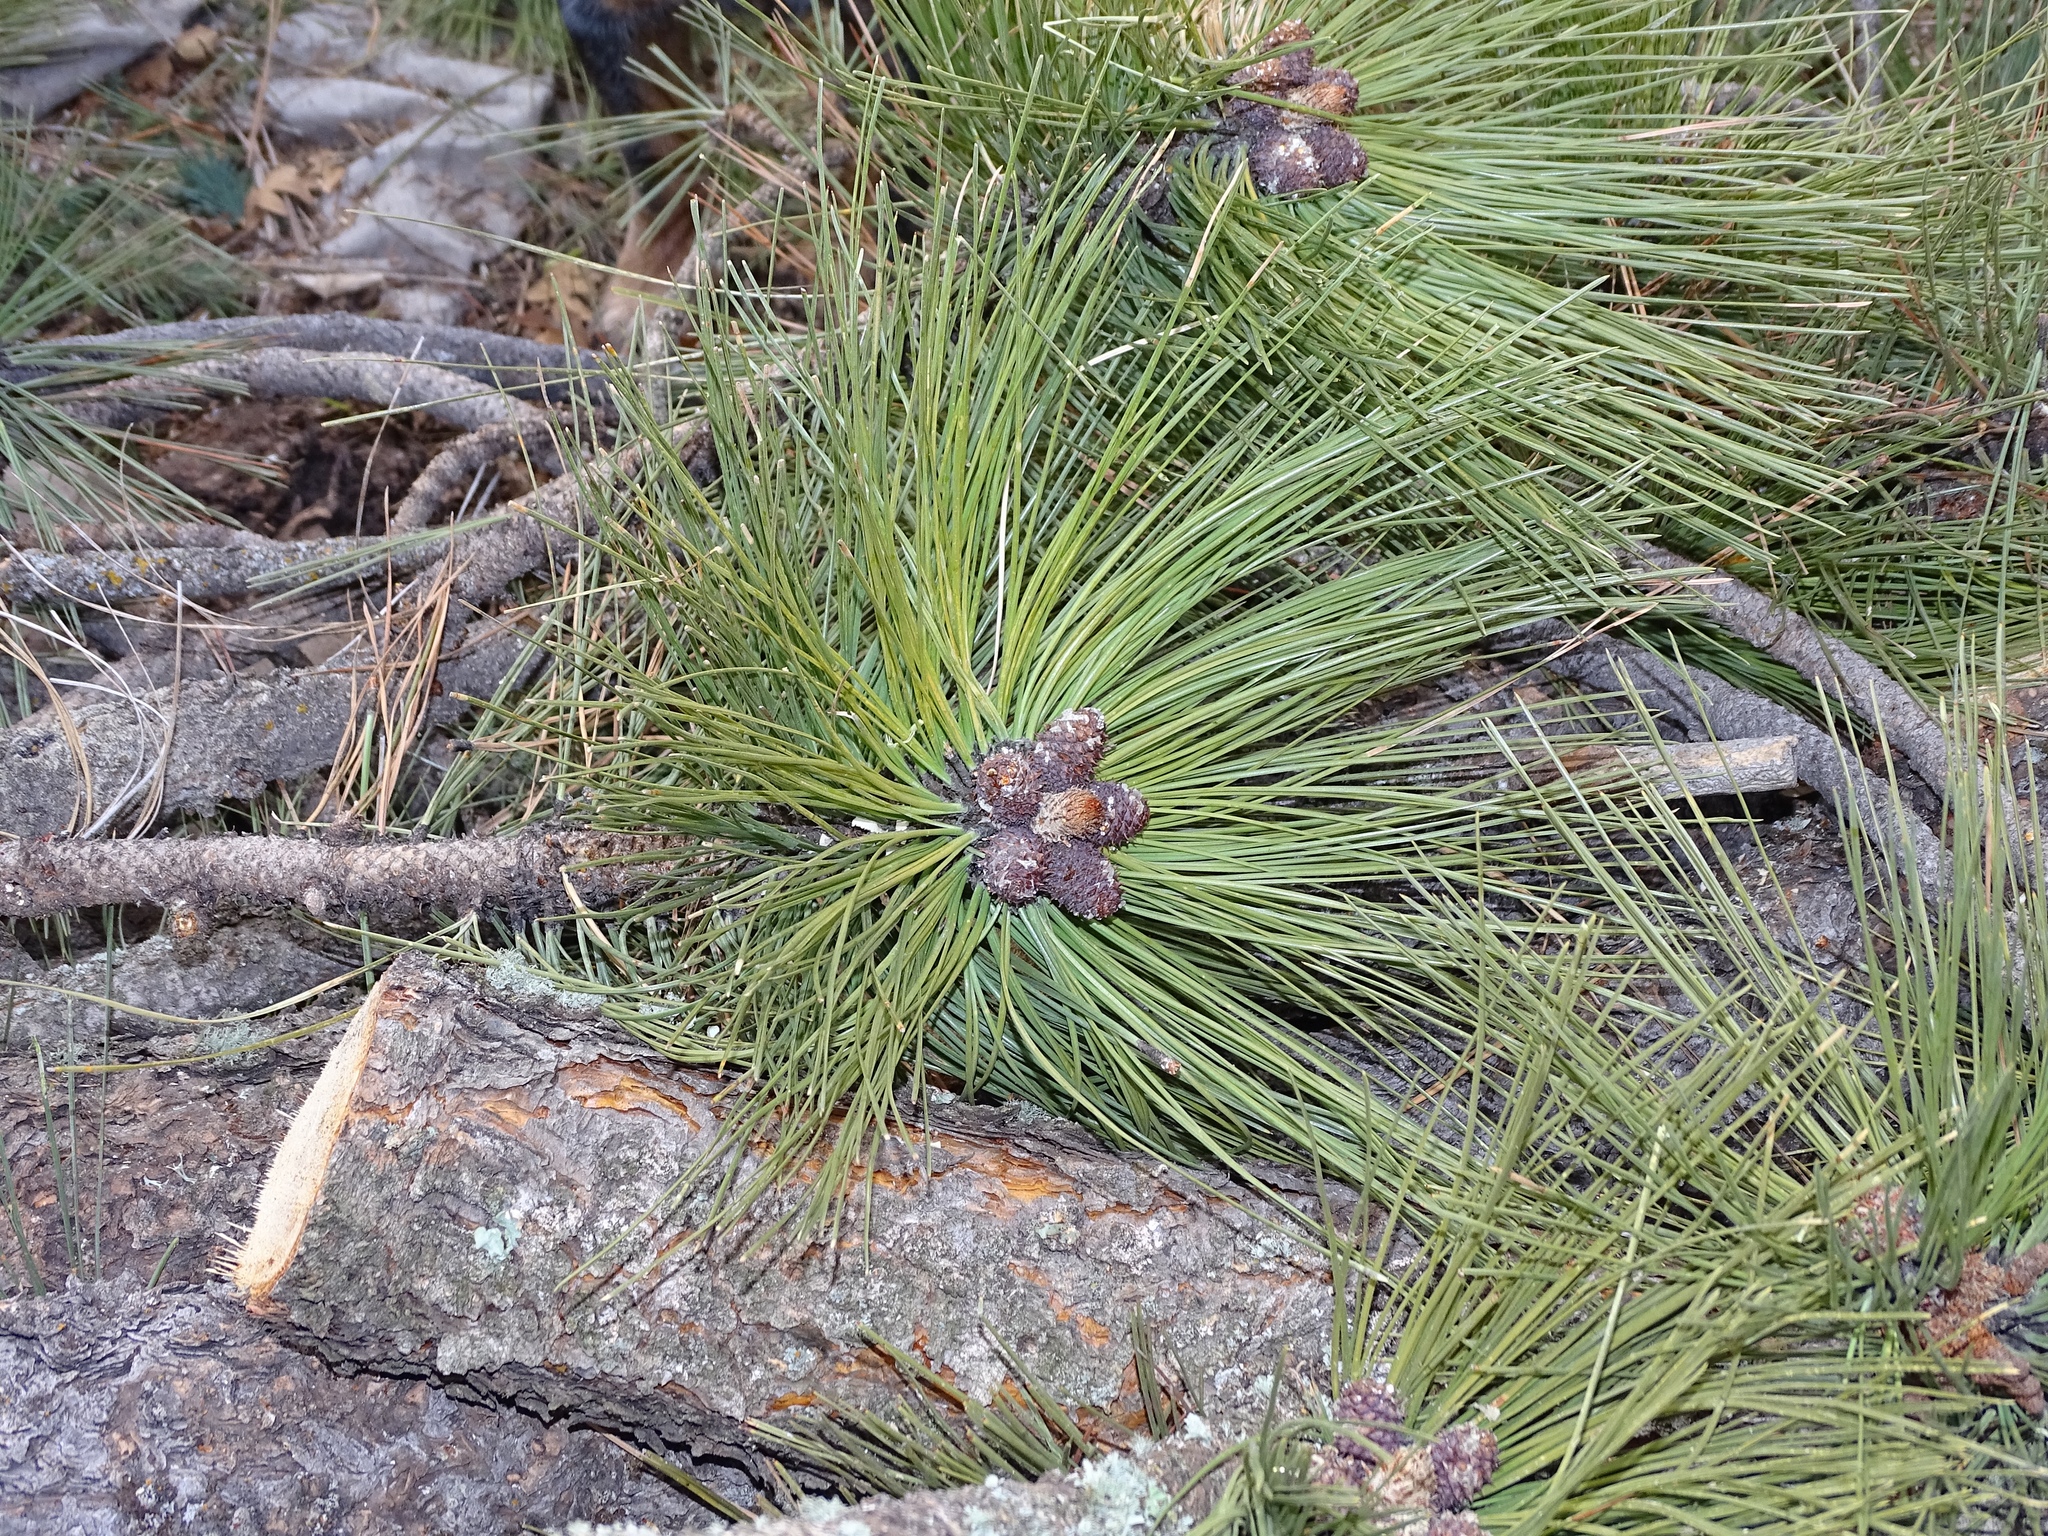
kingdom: Plantae
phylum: Tracheophyta
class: Pinopsida
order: Pinales
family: Pinaceae
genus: Pinus
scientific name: Pinus ponderosa
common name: Western yellow-pine
